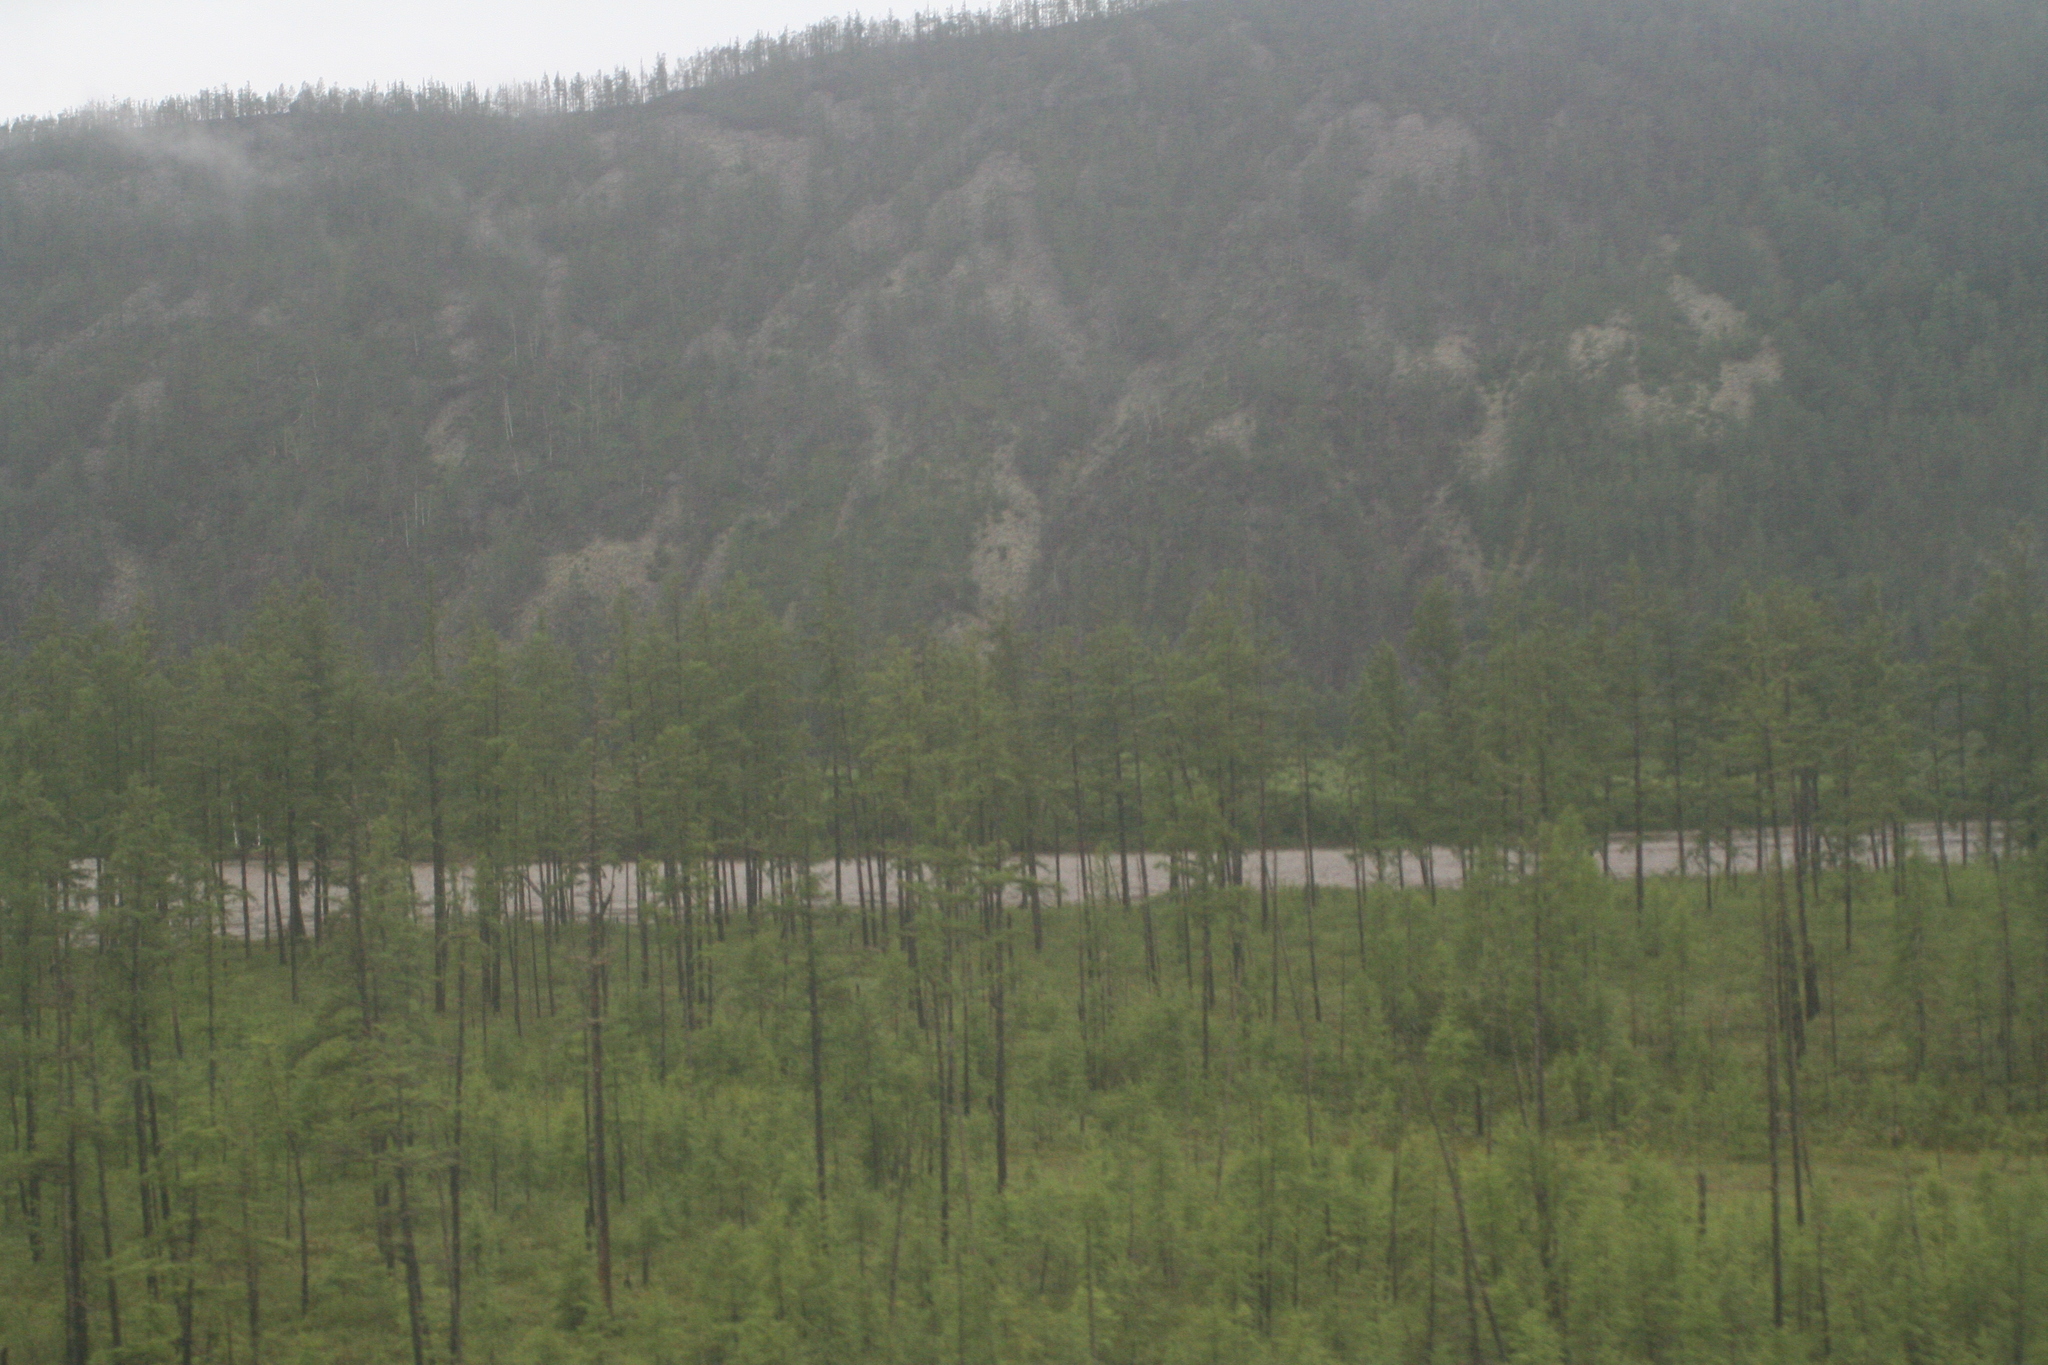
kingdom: Plantae
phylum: Tracheophyta
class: Pinopsida
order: Pinales
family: Pinaceae
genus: Larix
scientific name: Larix gmelinii
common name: Dahurian larch
